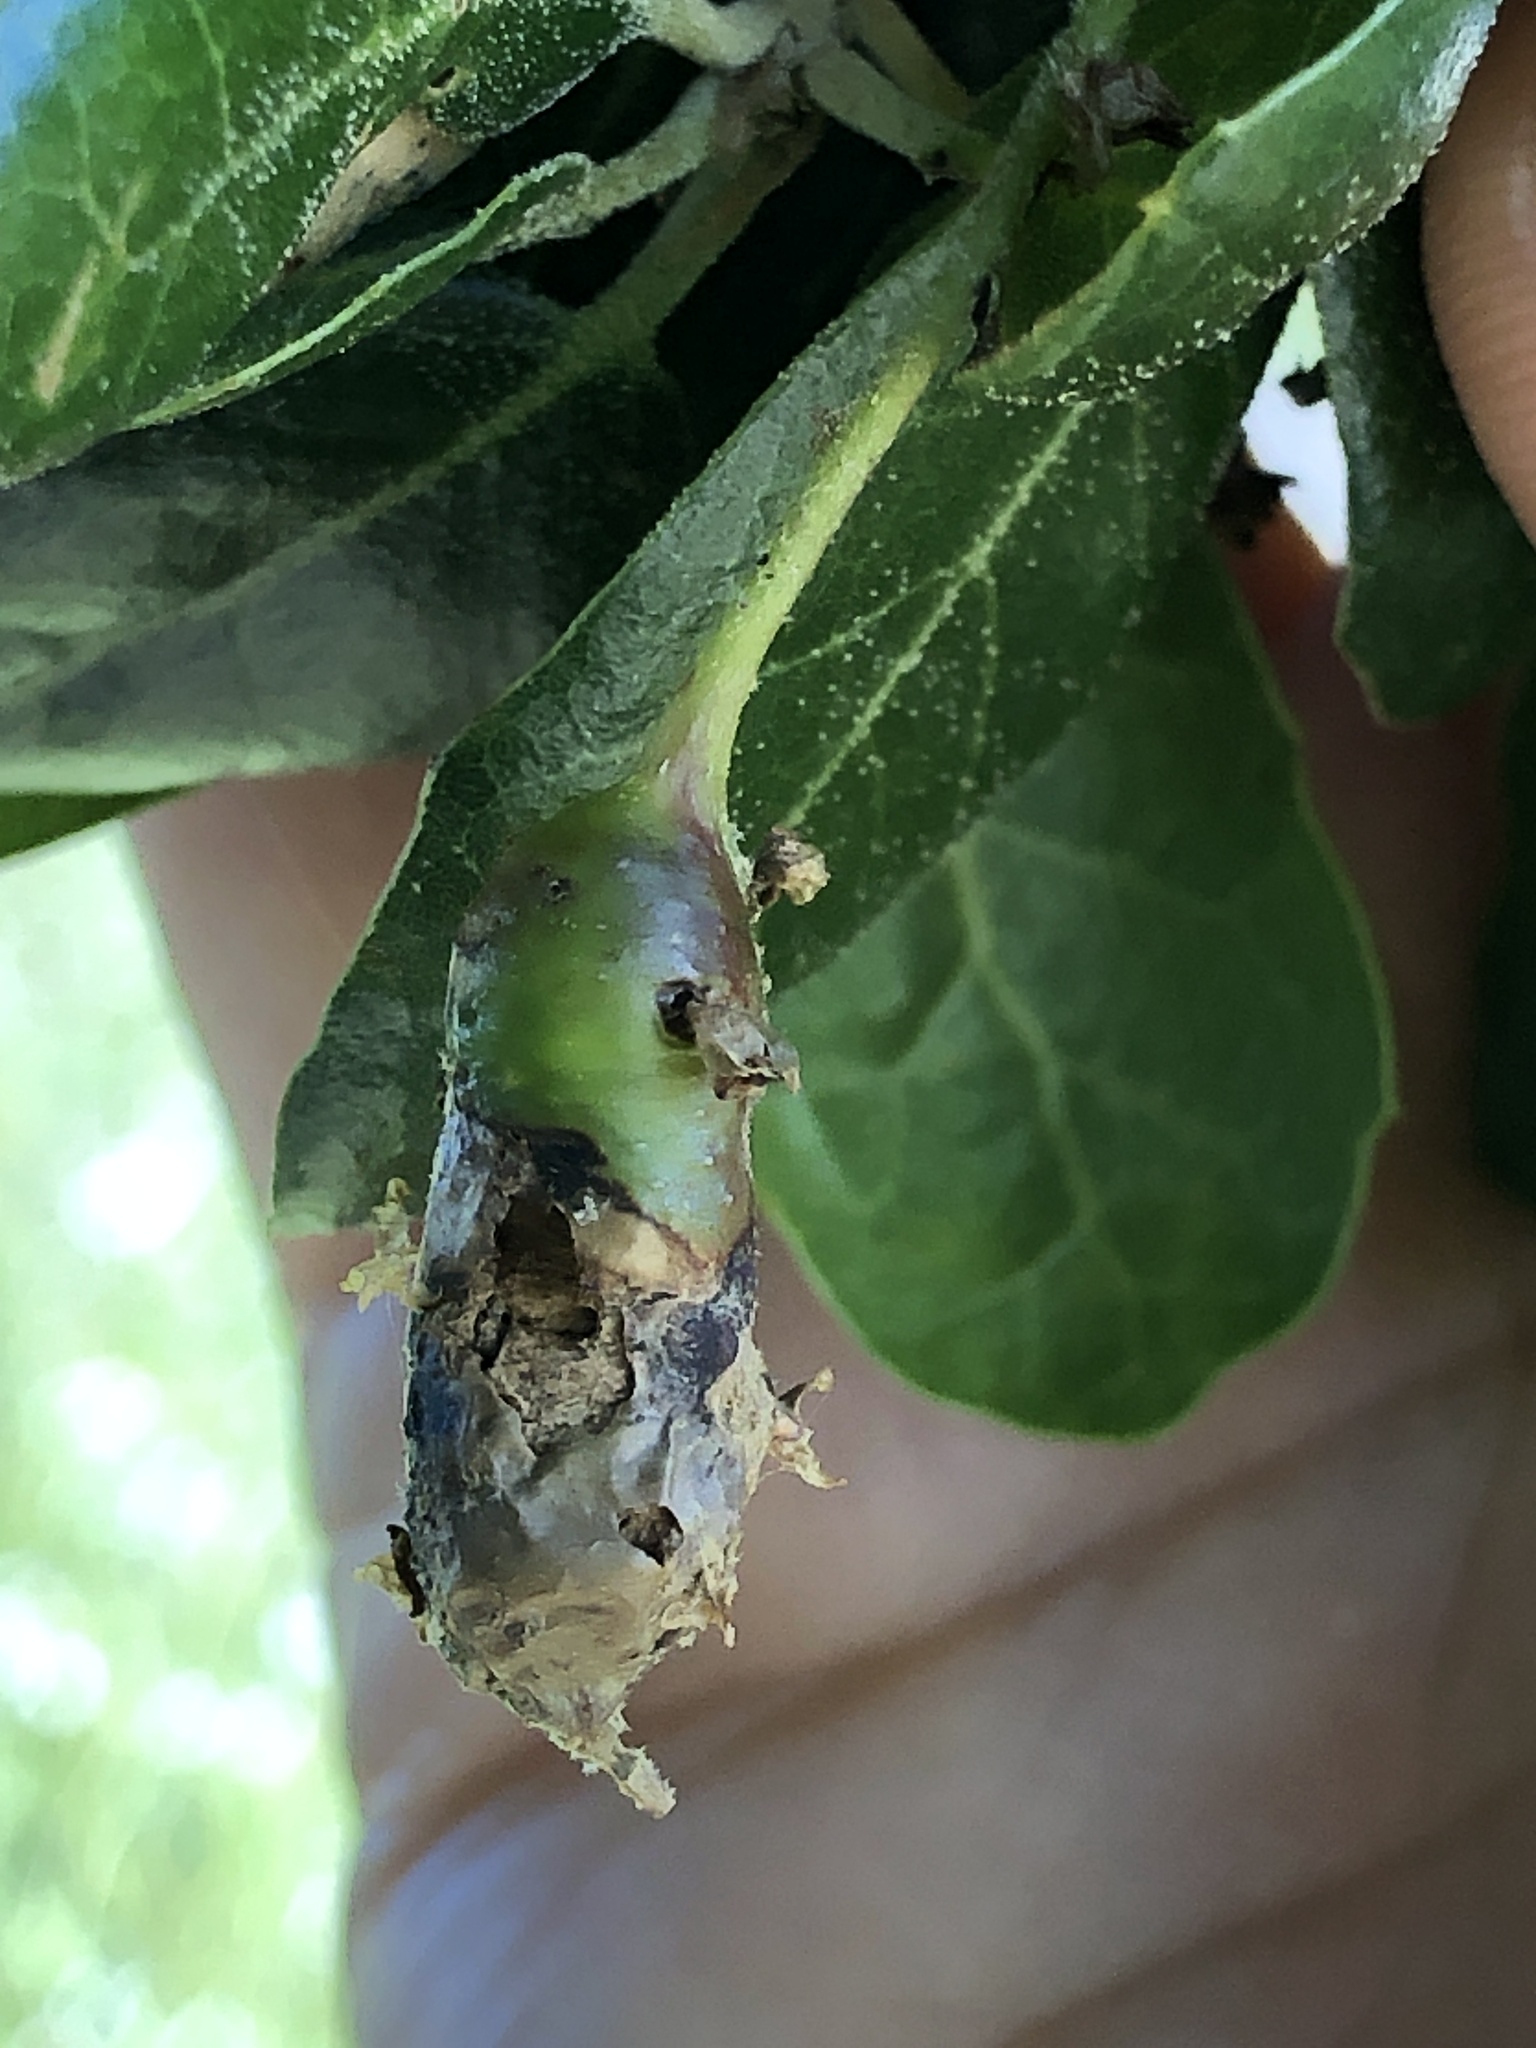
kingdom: Animalia
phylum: Arthropoda
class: Insecta
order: Hymenoptera
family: Cynipidae
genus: Callirhytis
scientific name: Callirhytis
